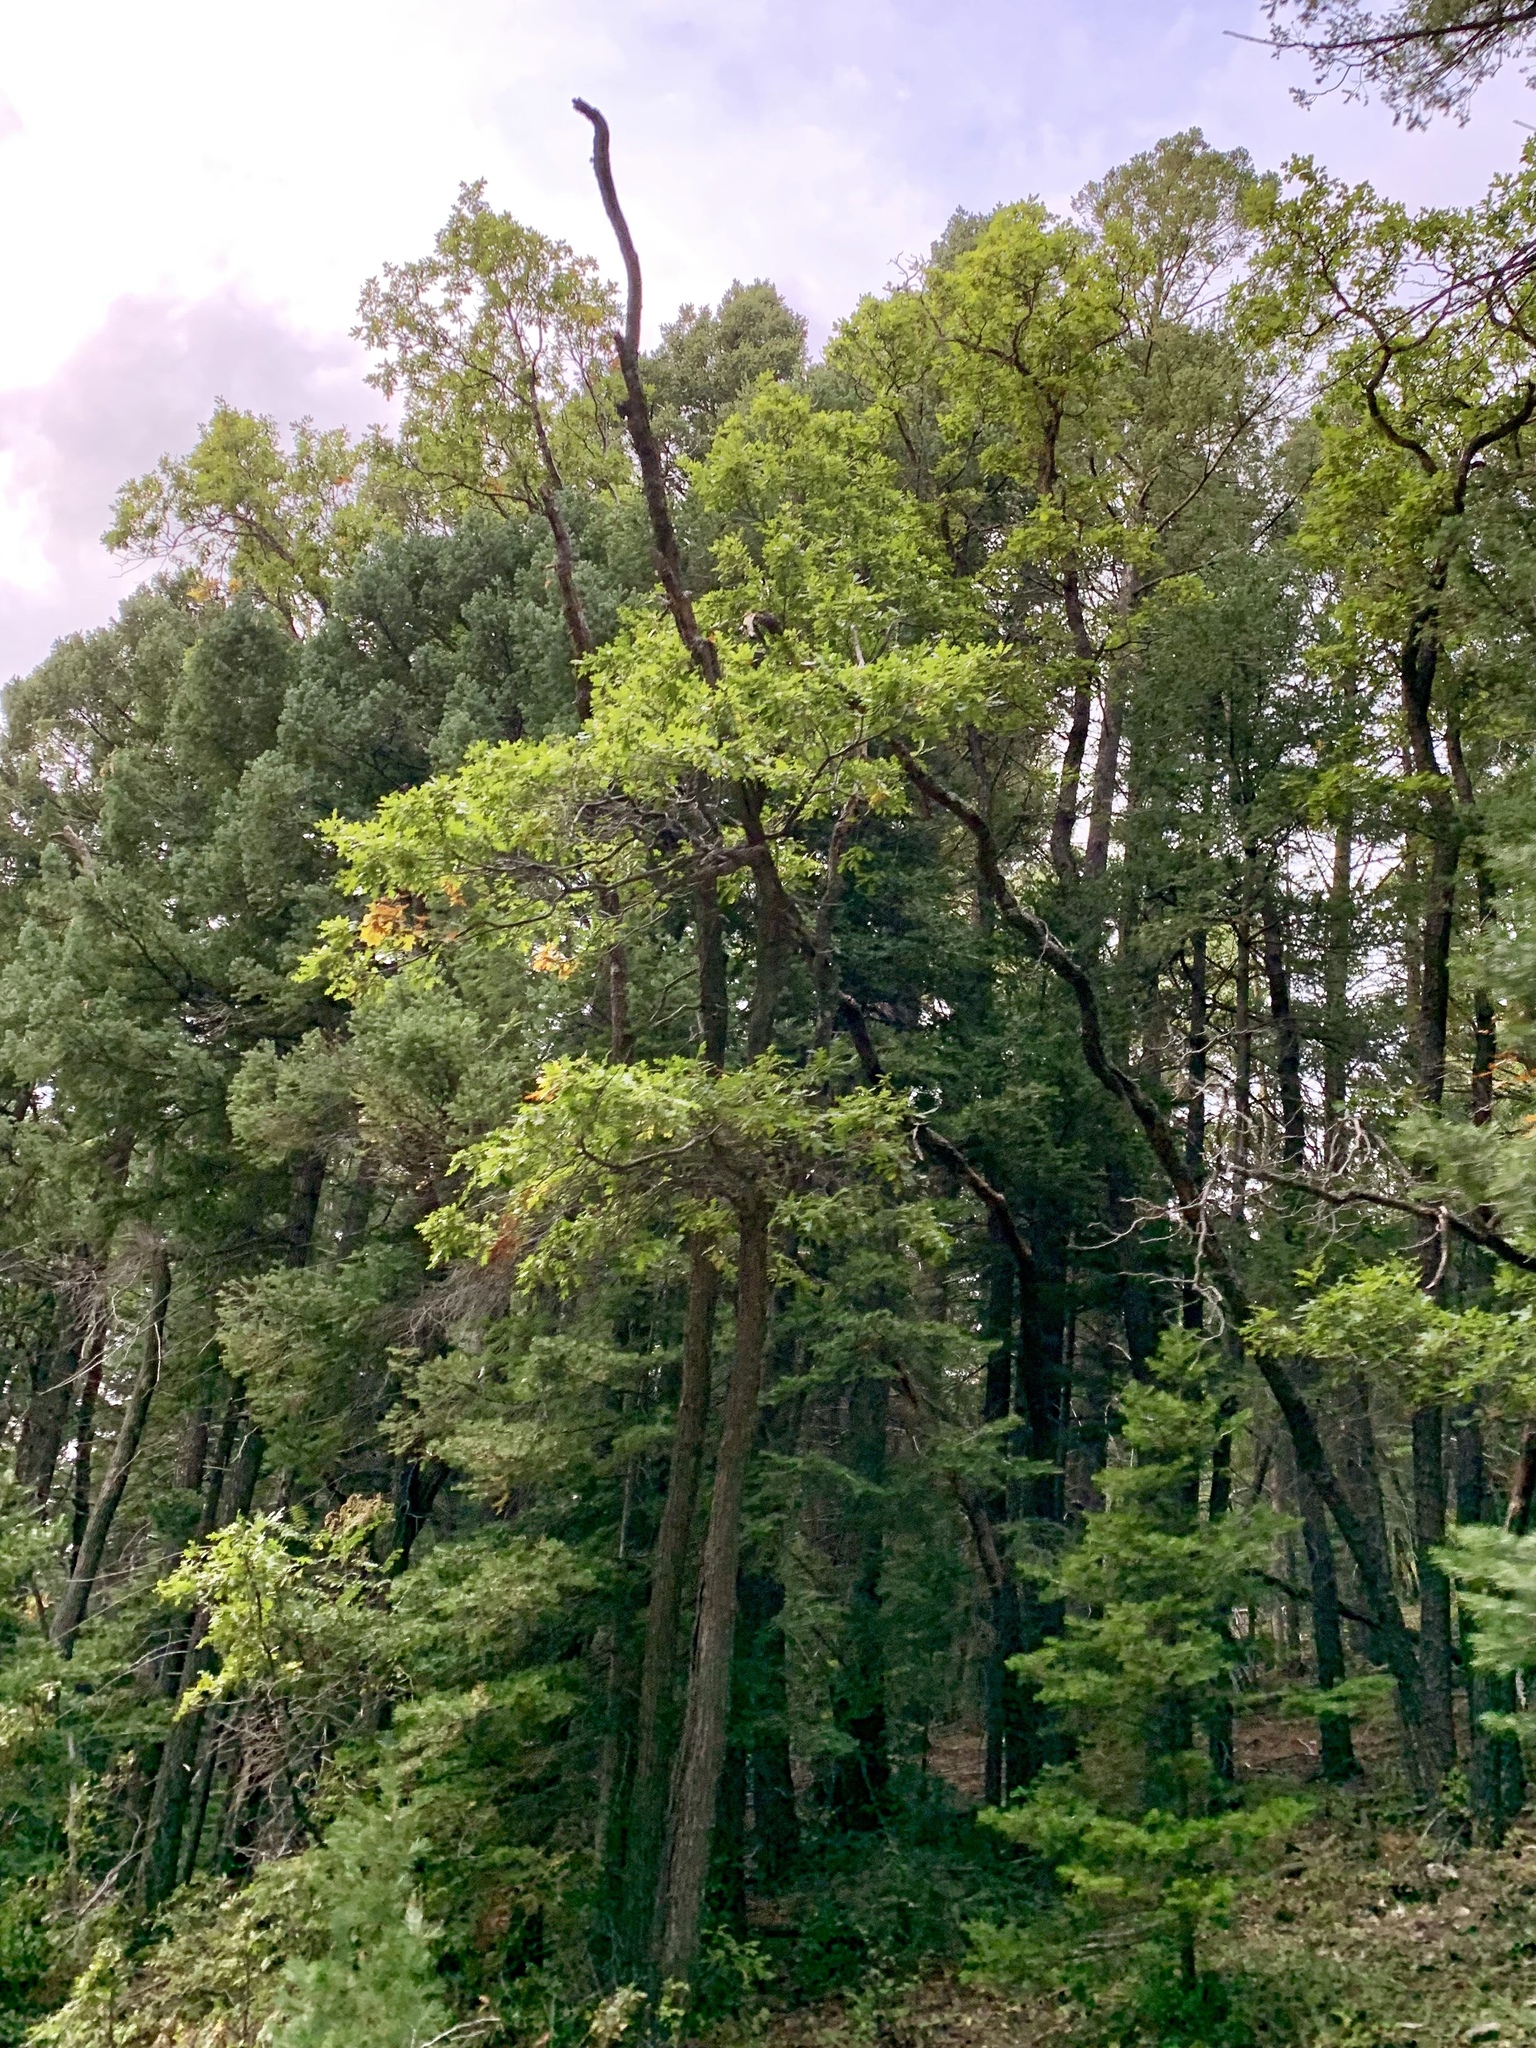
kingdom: Plantae
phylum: Tracheophyta
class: Magnoliopsida
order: Fagales
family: Fagaceae
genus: Quercus
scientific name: Quercus gambelii
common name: Gambel oak
